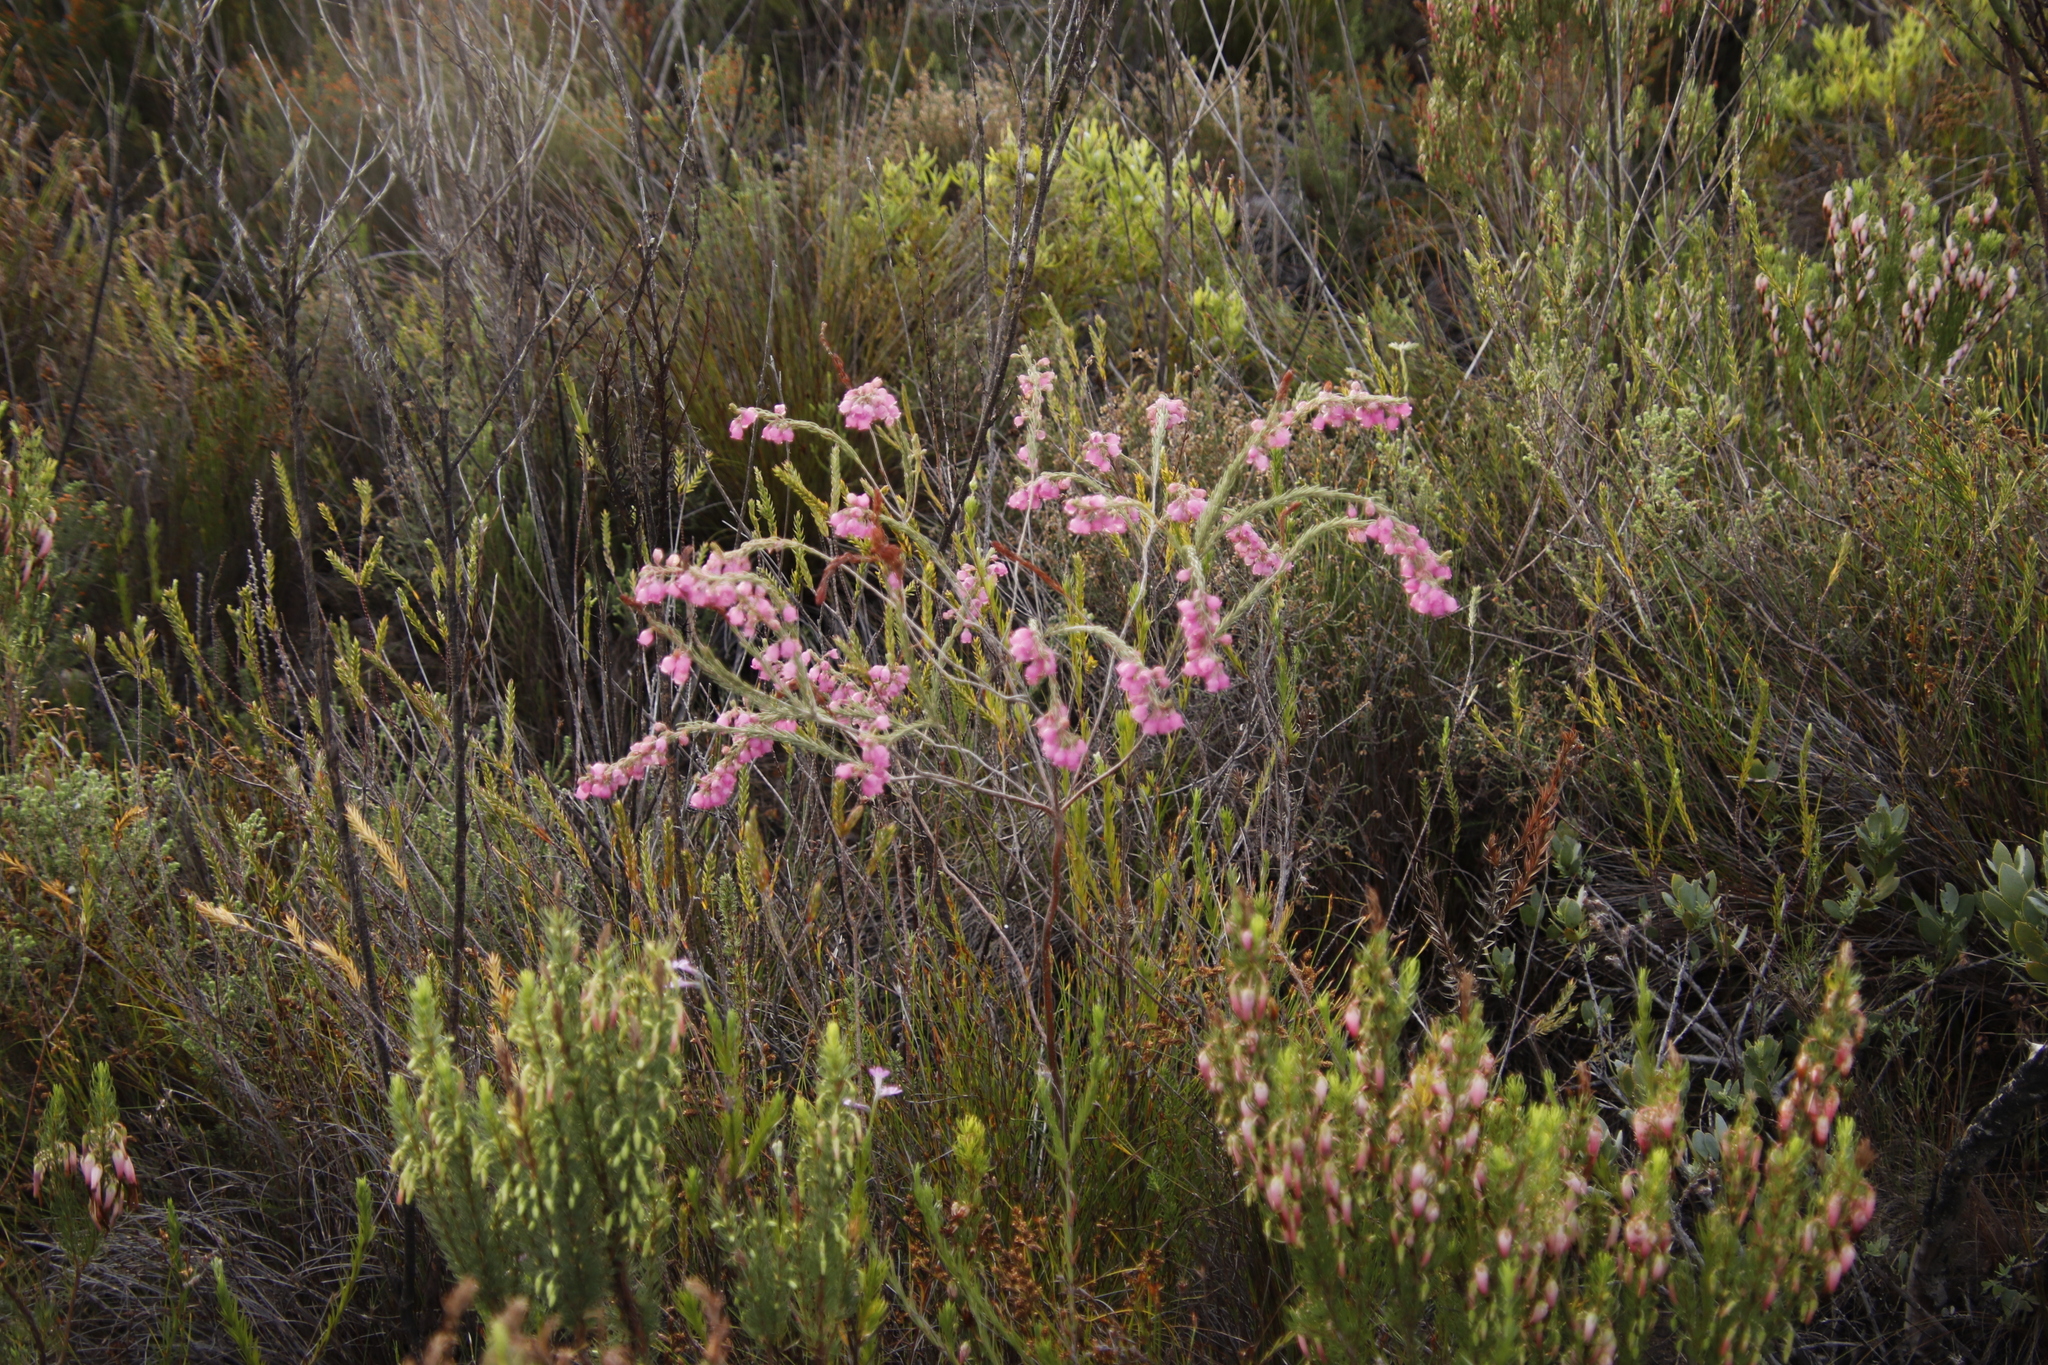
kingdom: Plantae
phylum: Tracheophyta
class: Magnoliopsida
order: Ericales
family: Ericaceae
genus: Erica
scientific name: Erica viscaria
